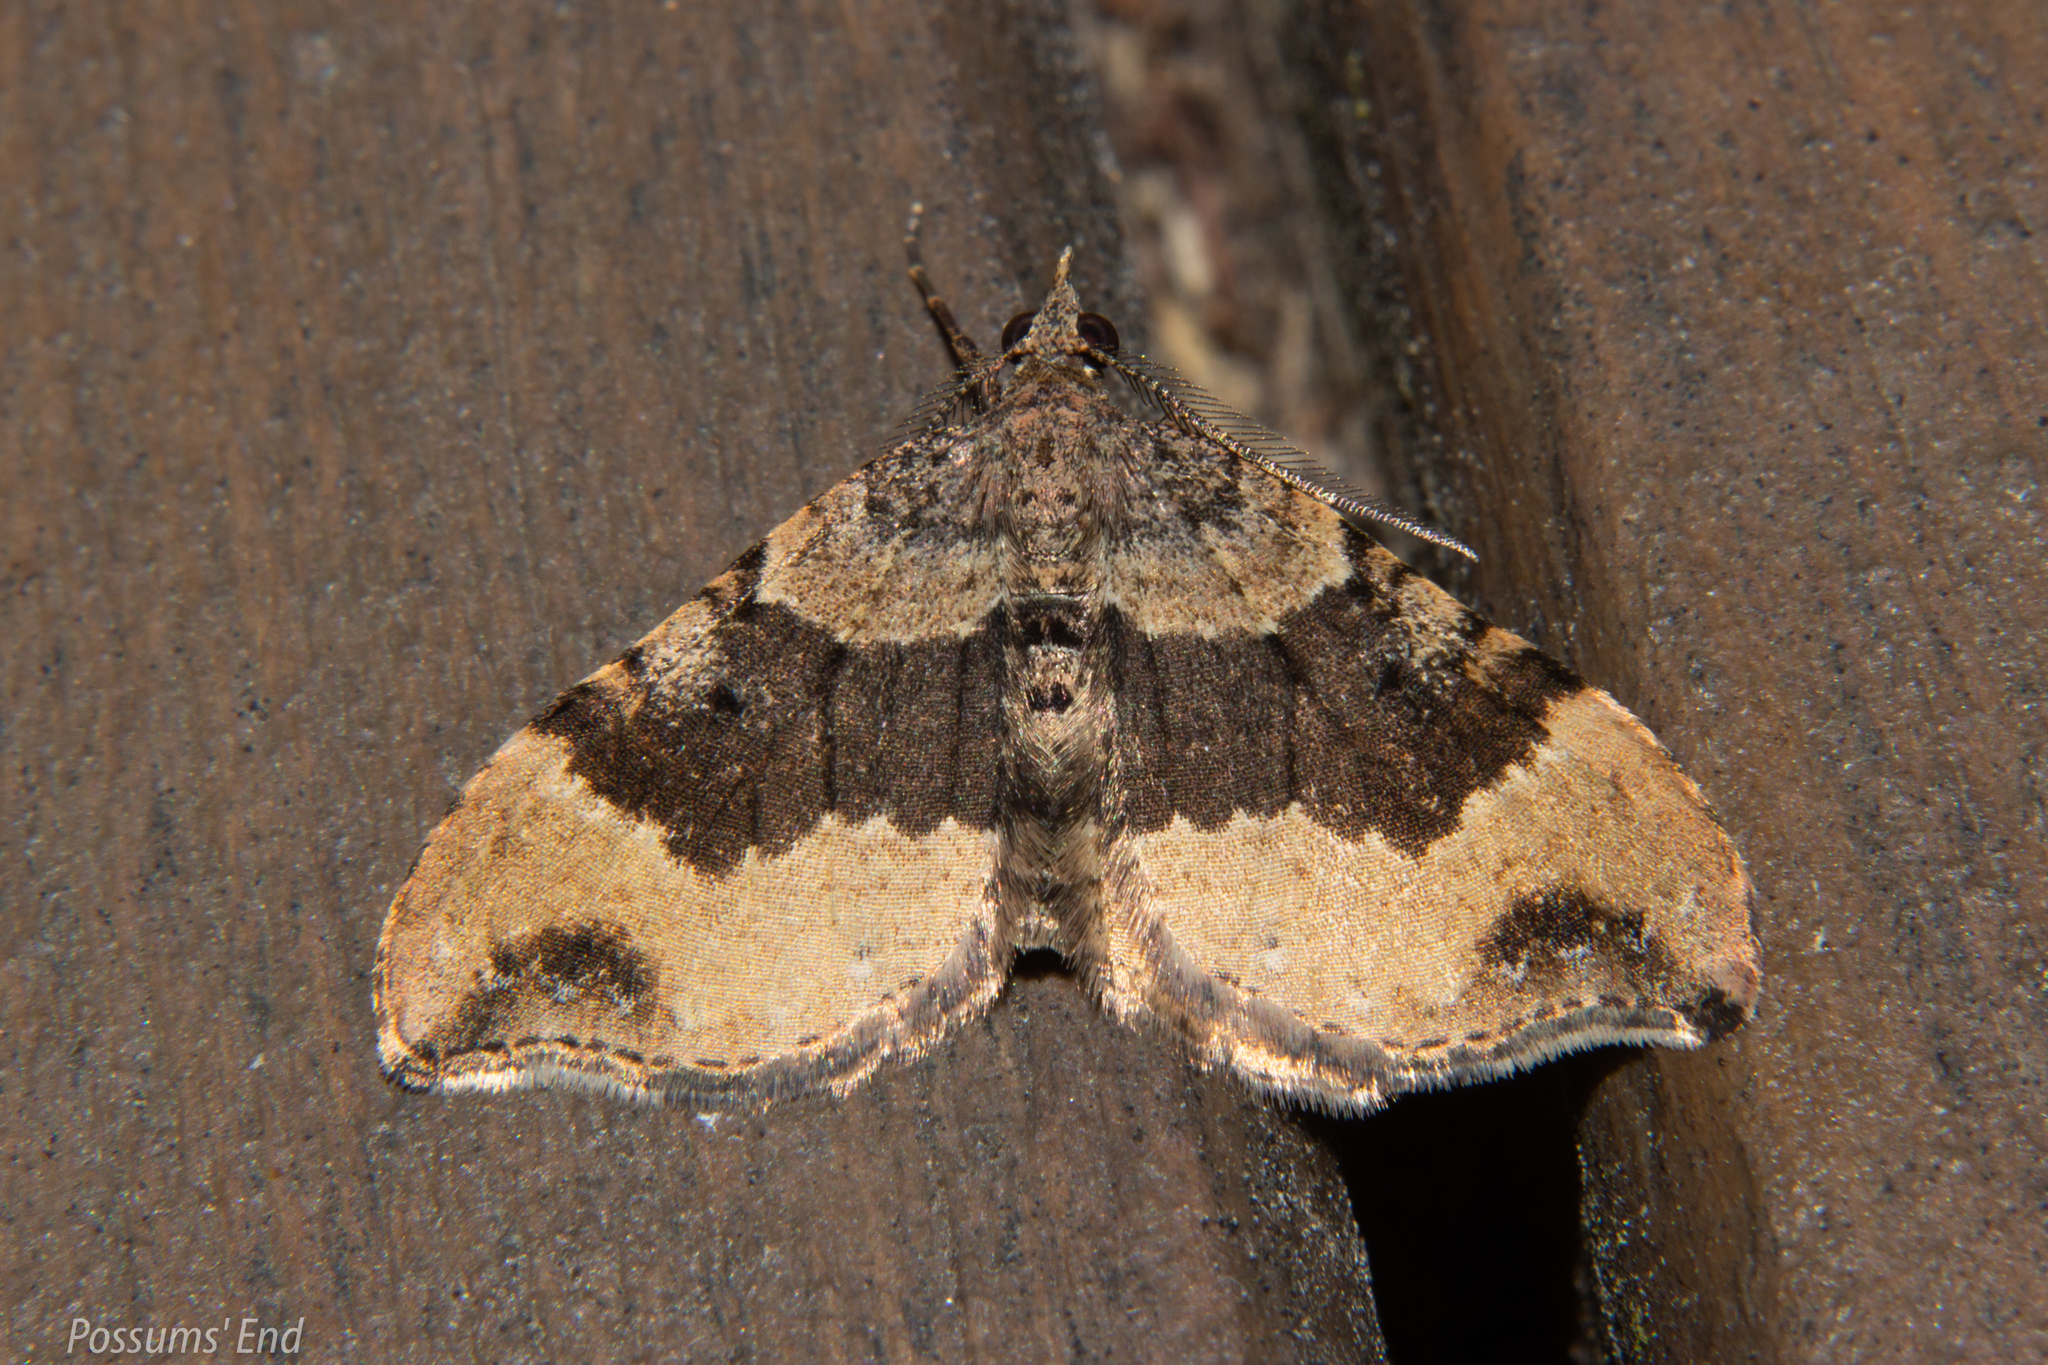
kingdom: Animalia
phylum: Arthropoda
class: Insecta
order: Lepidoptera
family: Geometridae
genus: Homodotis
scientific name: Homodotis megaspilata
